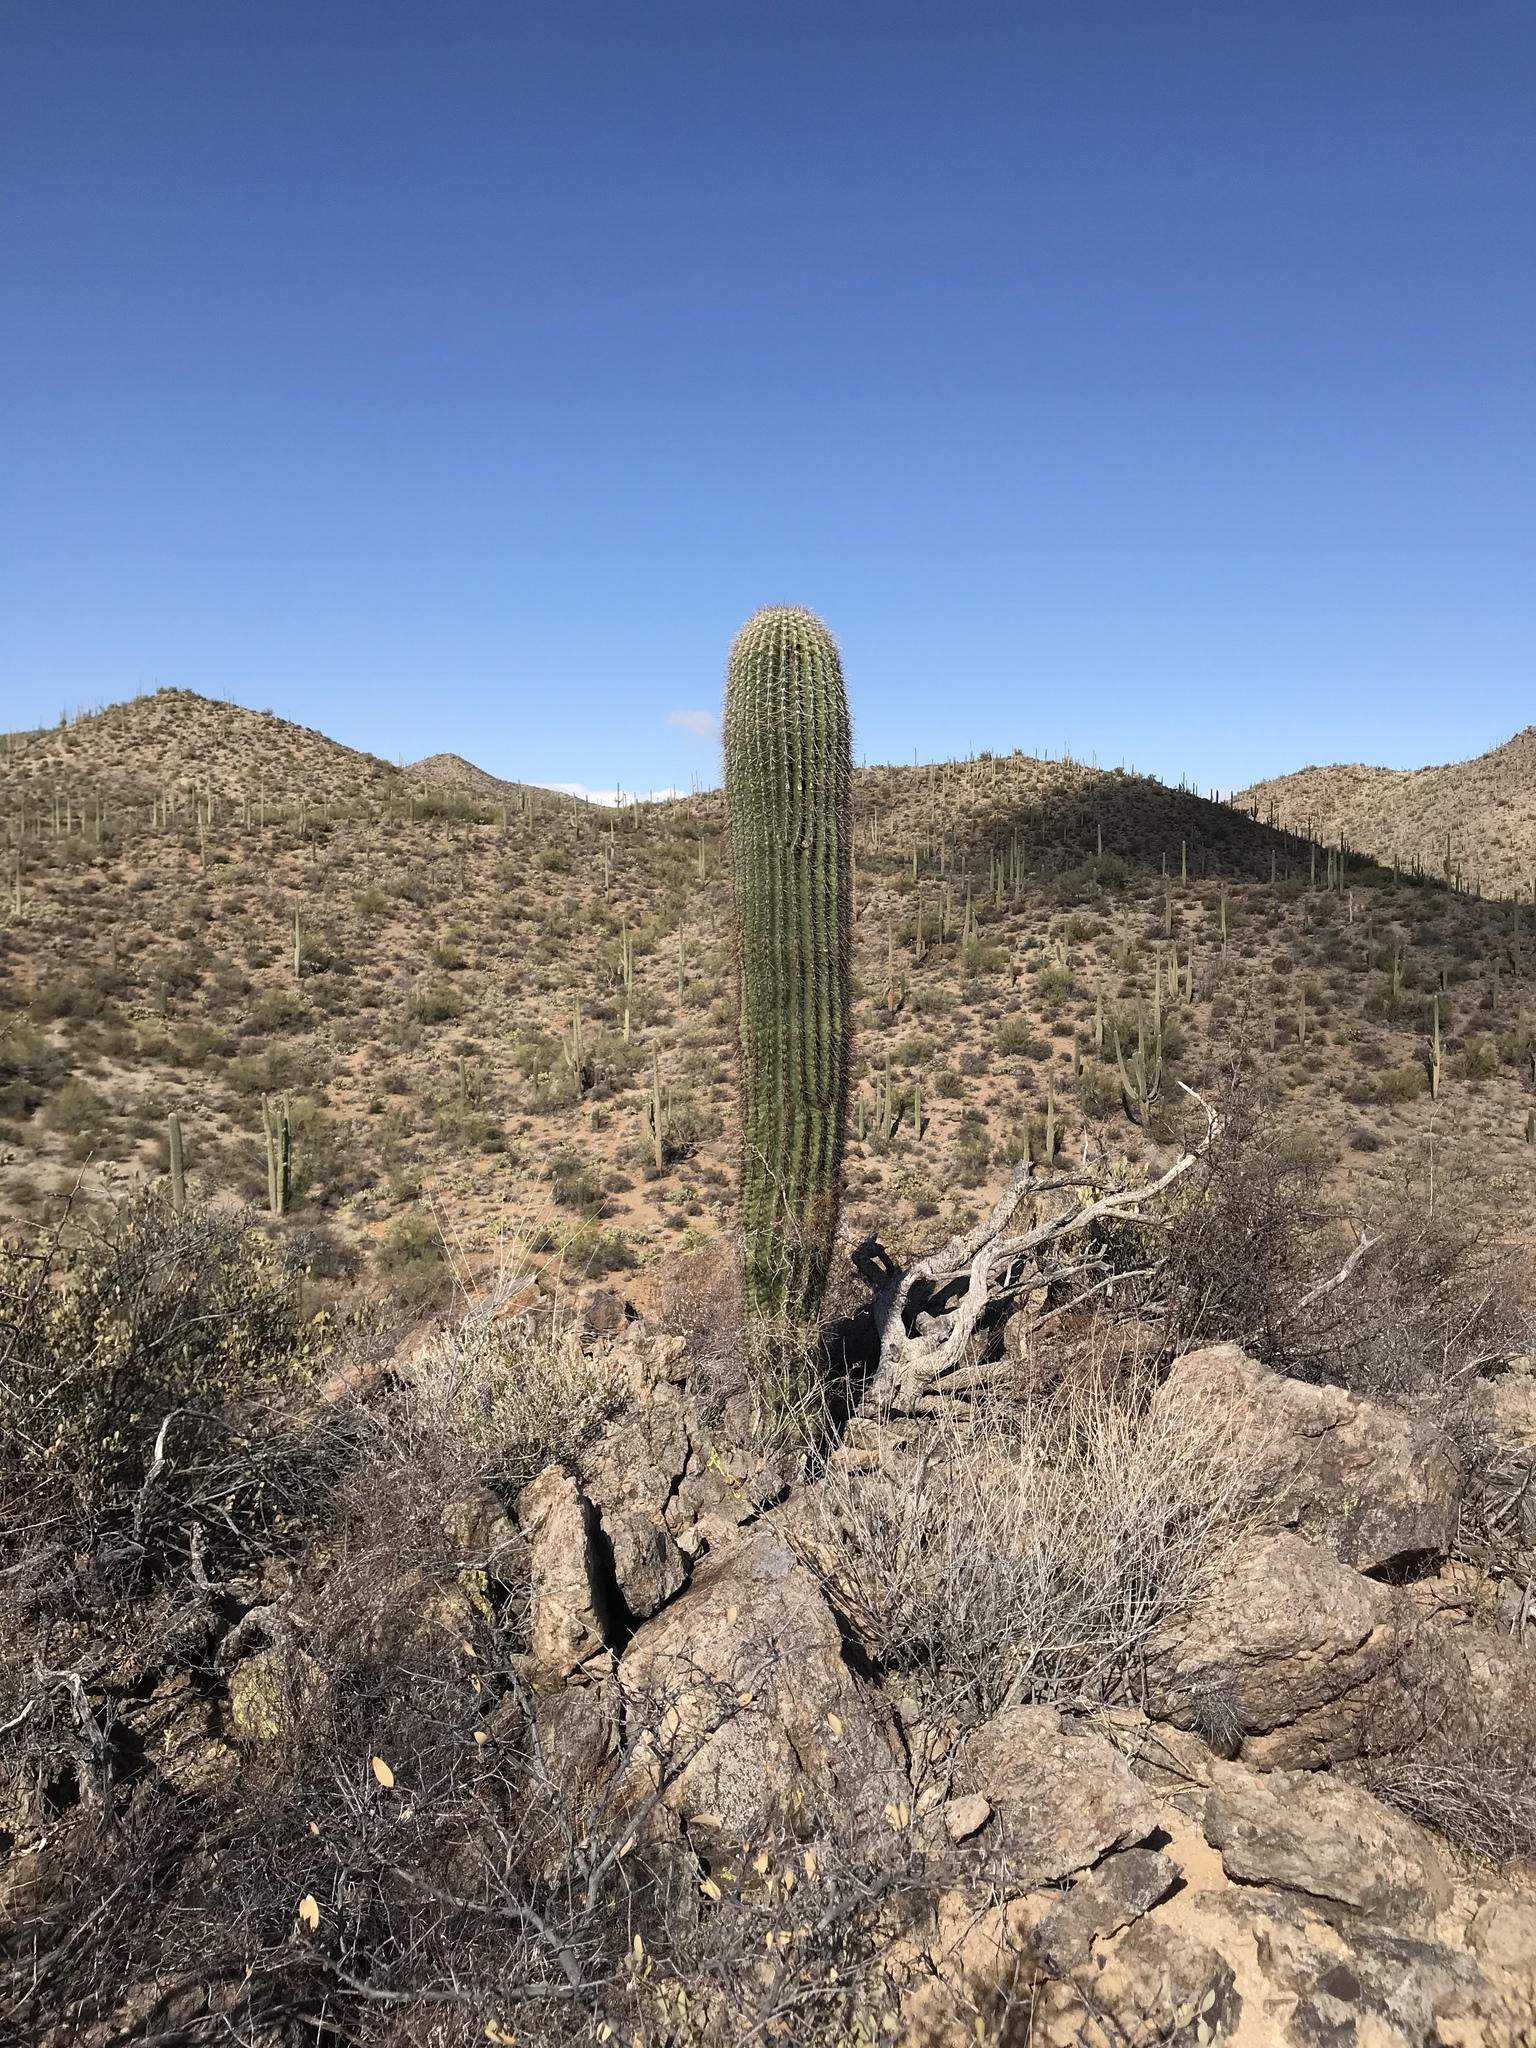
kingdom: Plantae
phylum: Tracheophyta
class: Magnoliopsida
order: Caryophyllales
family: Cactaceae
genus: Carnegiea
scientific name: Carnegiea gigantea
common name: Saguaro
